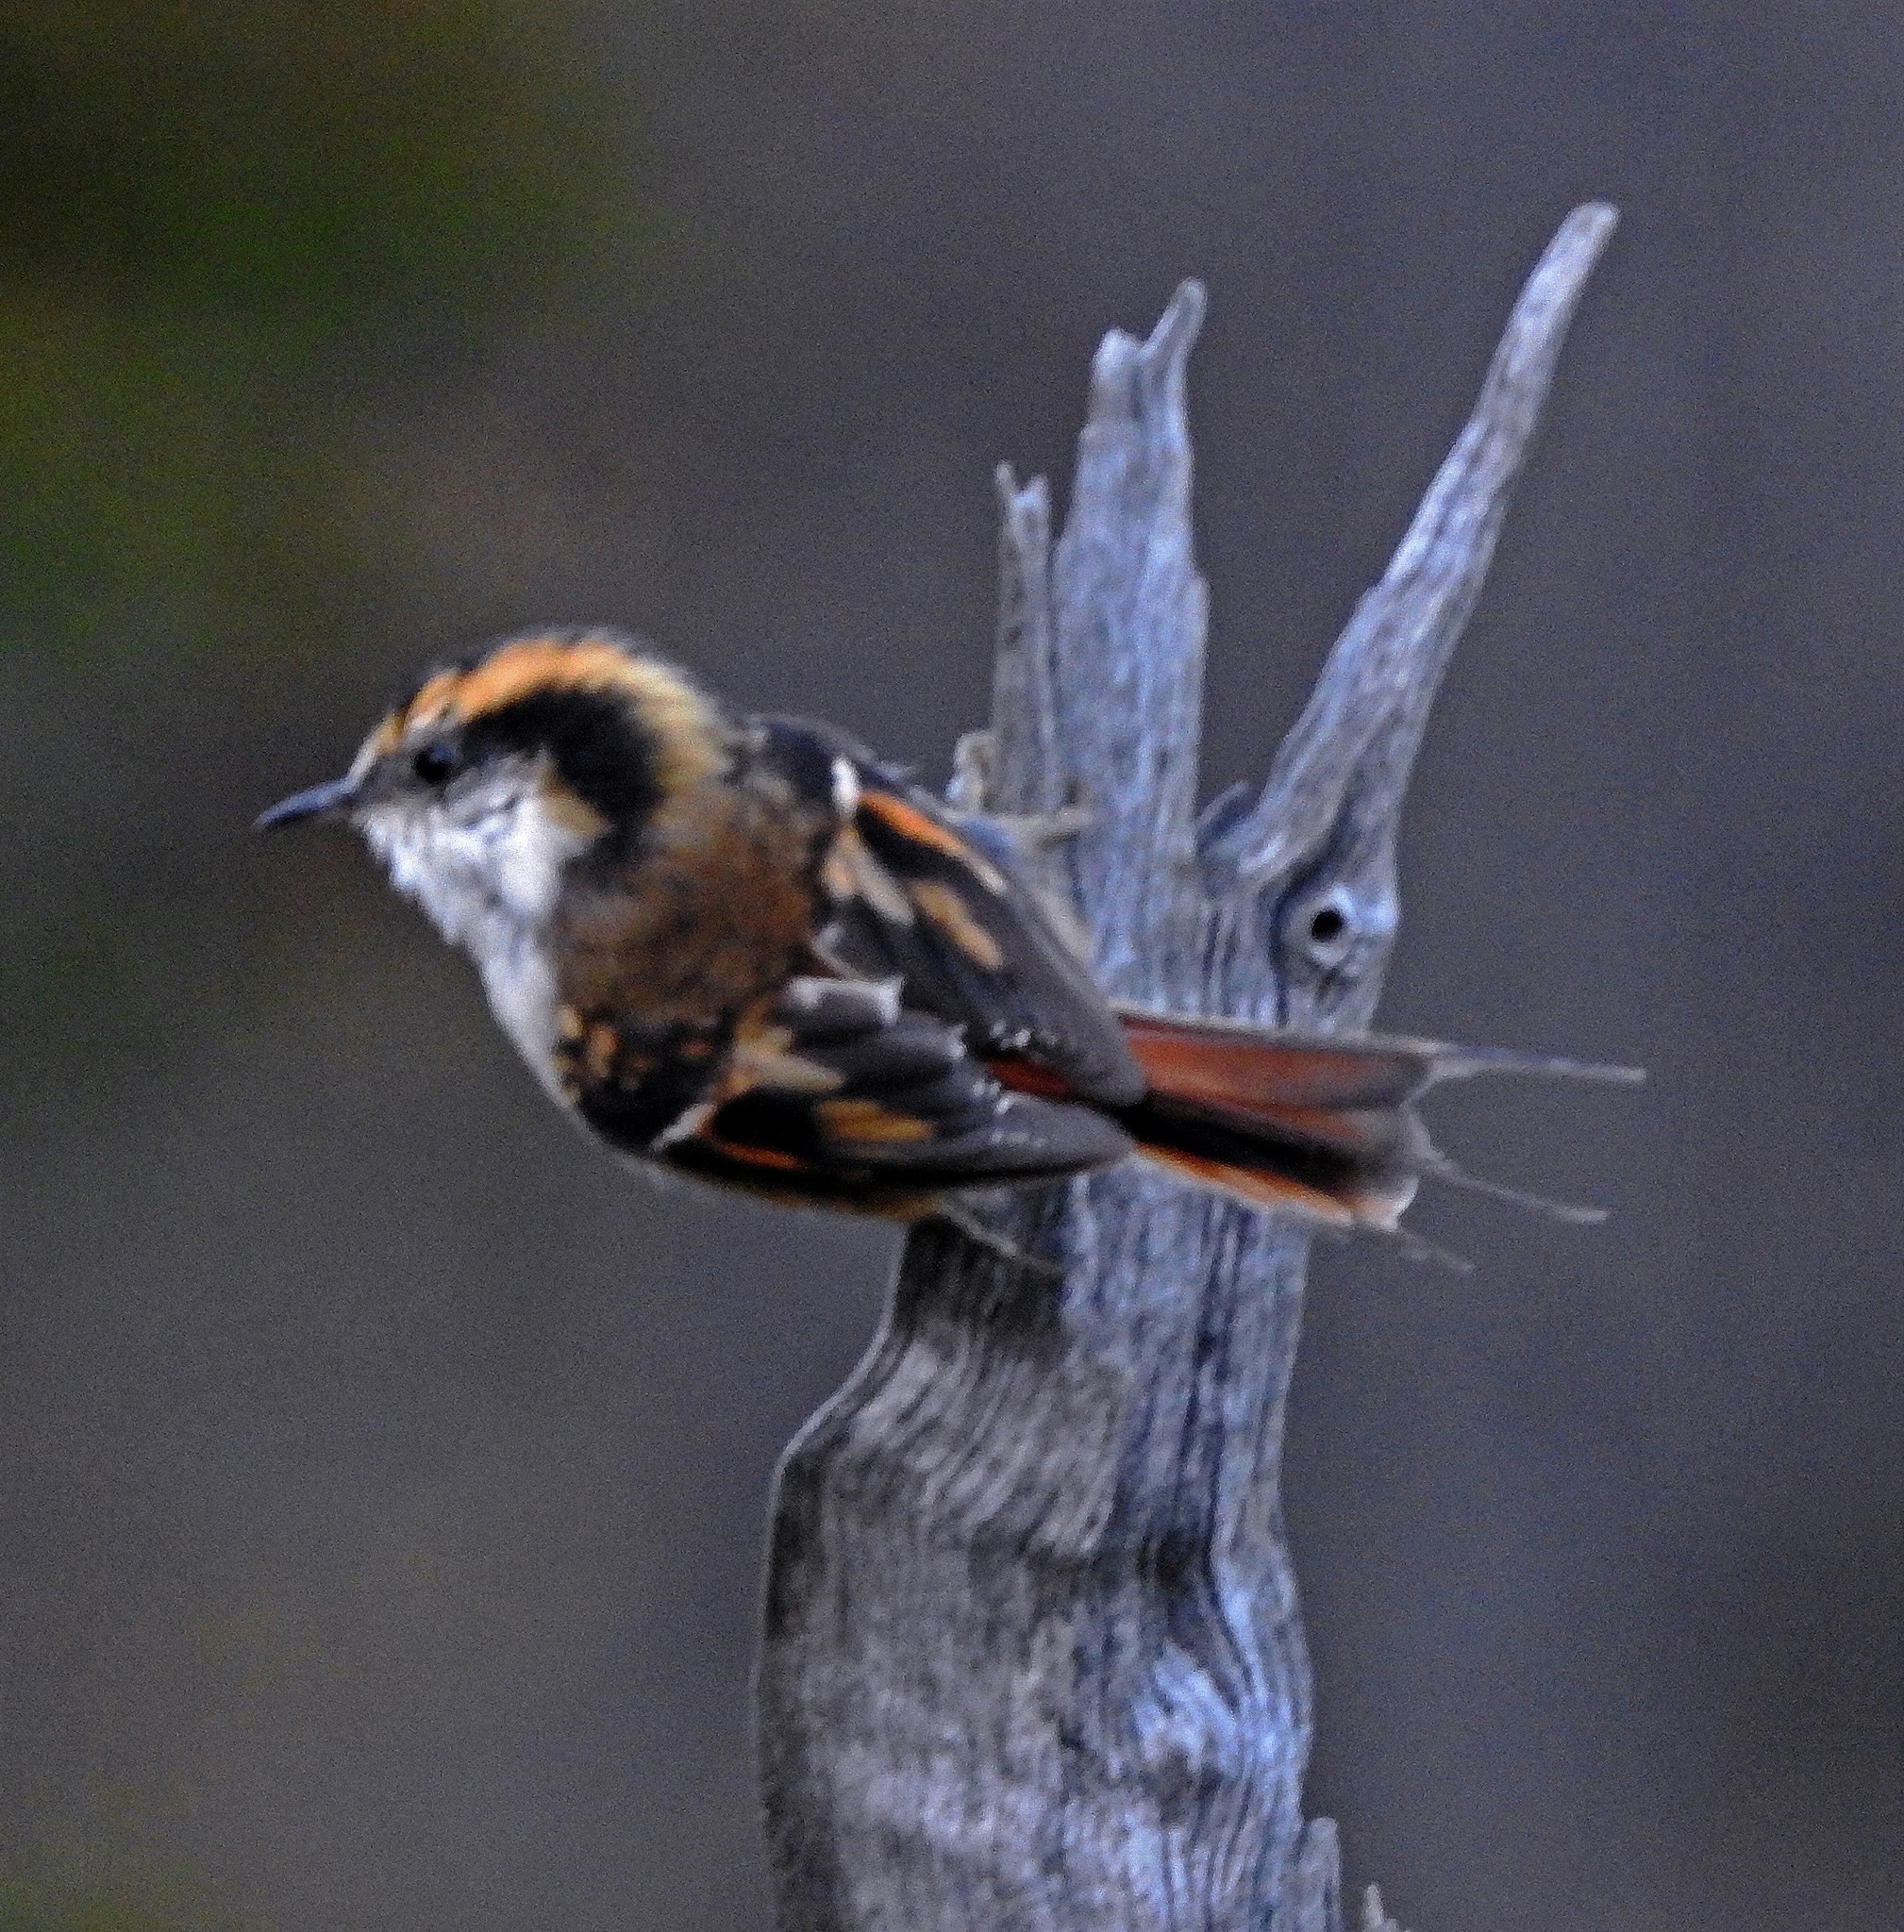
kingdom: Animalia
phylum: Chordata
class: Aves
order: Passeriformes
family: Furnariidae
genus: Aphrastura
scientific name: Aphrastura spinicauda
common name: Thorn-tailed rayadito
